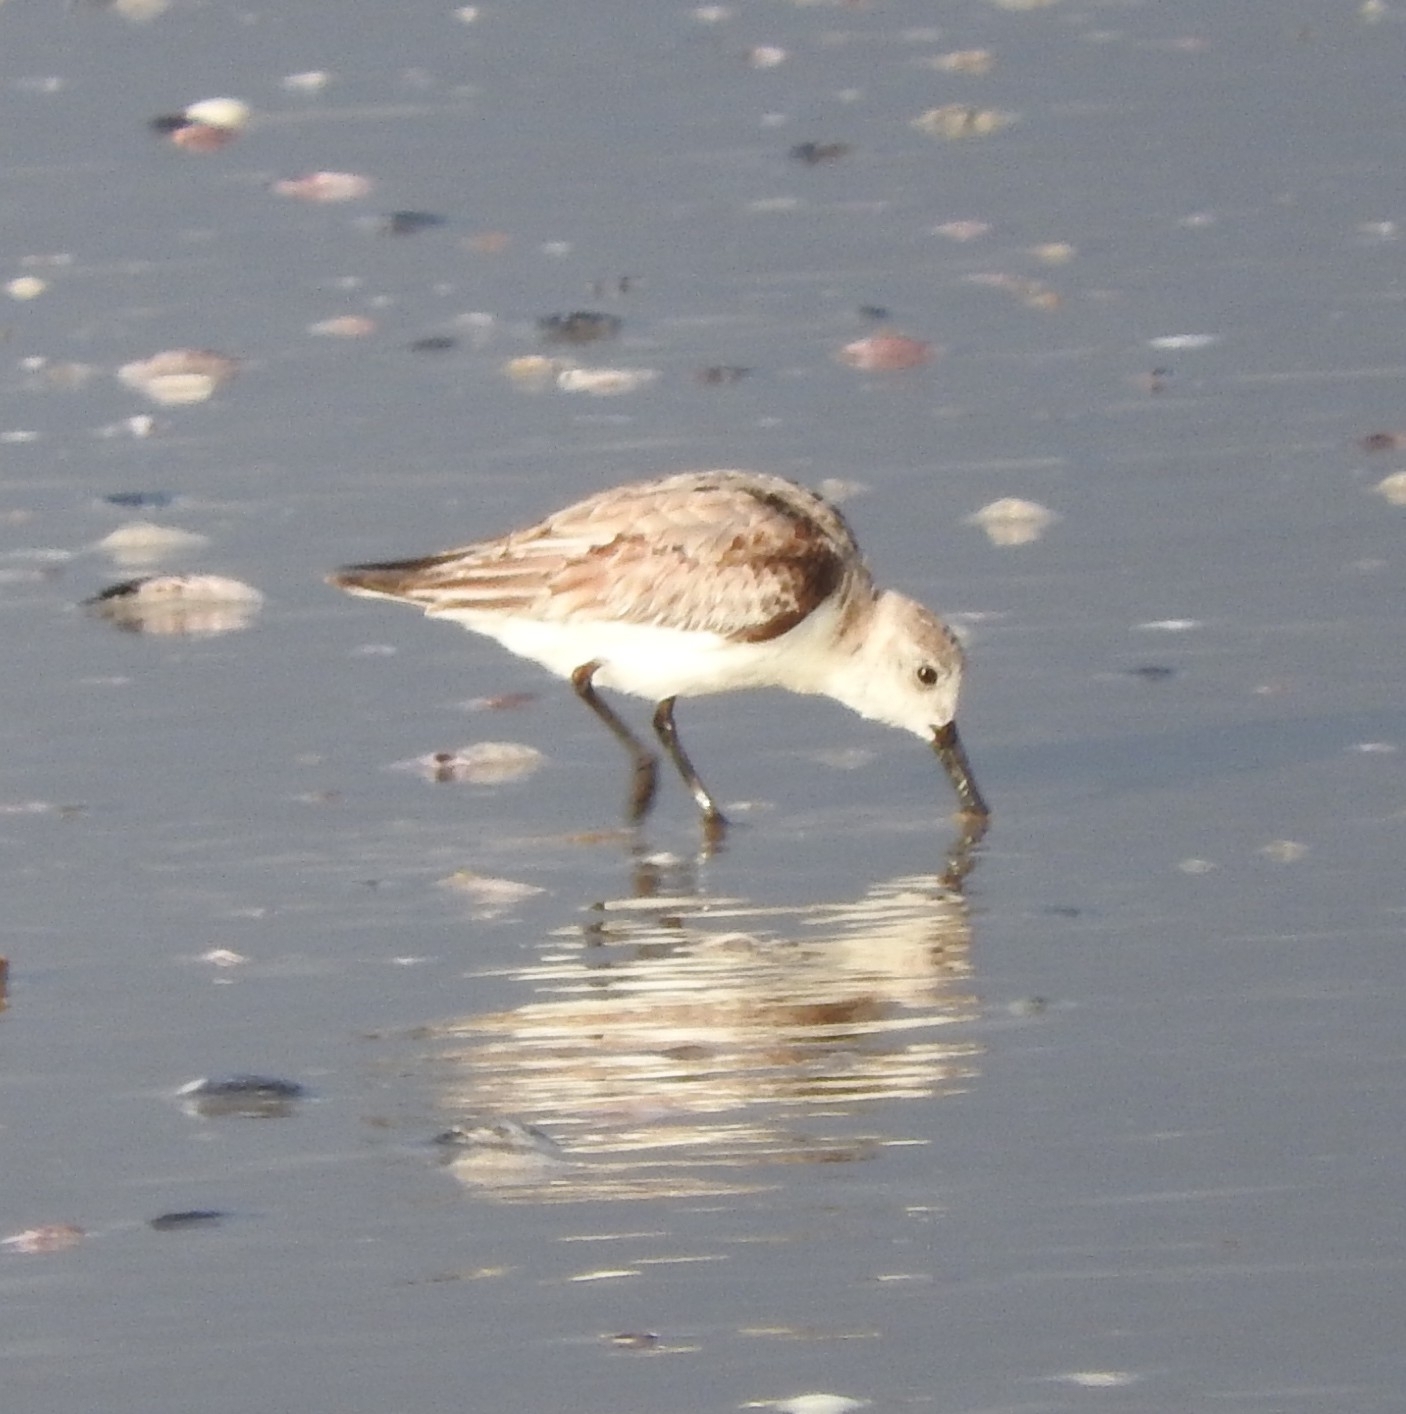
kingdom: Animalia
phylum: Chordata
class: Aves
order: Charadriiformes
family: Scolopacidae
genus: Calidris
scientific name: Calidris alba
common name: Sanderling
